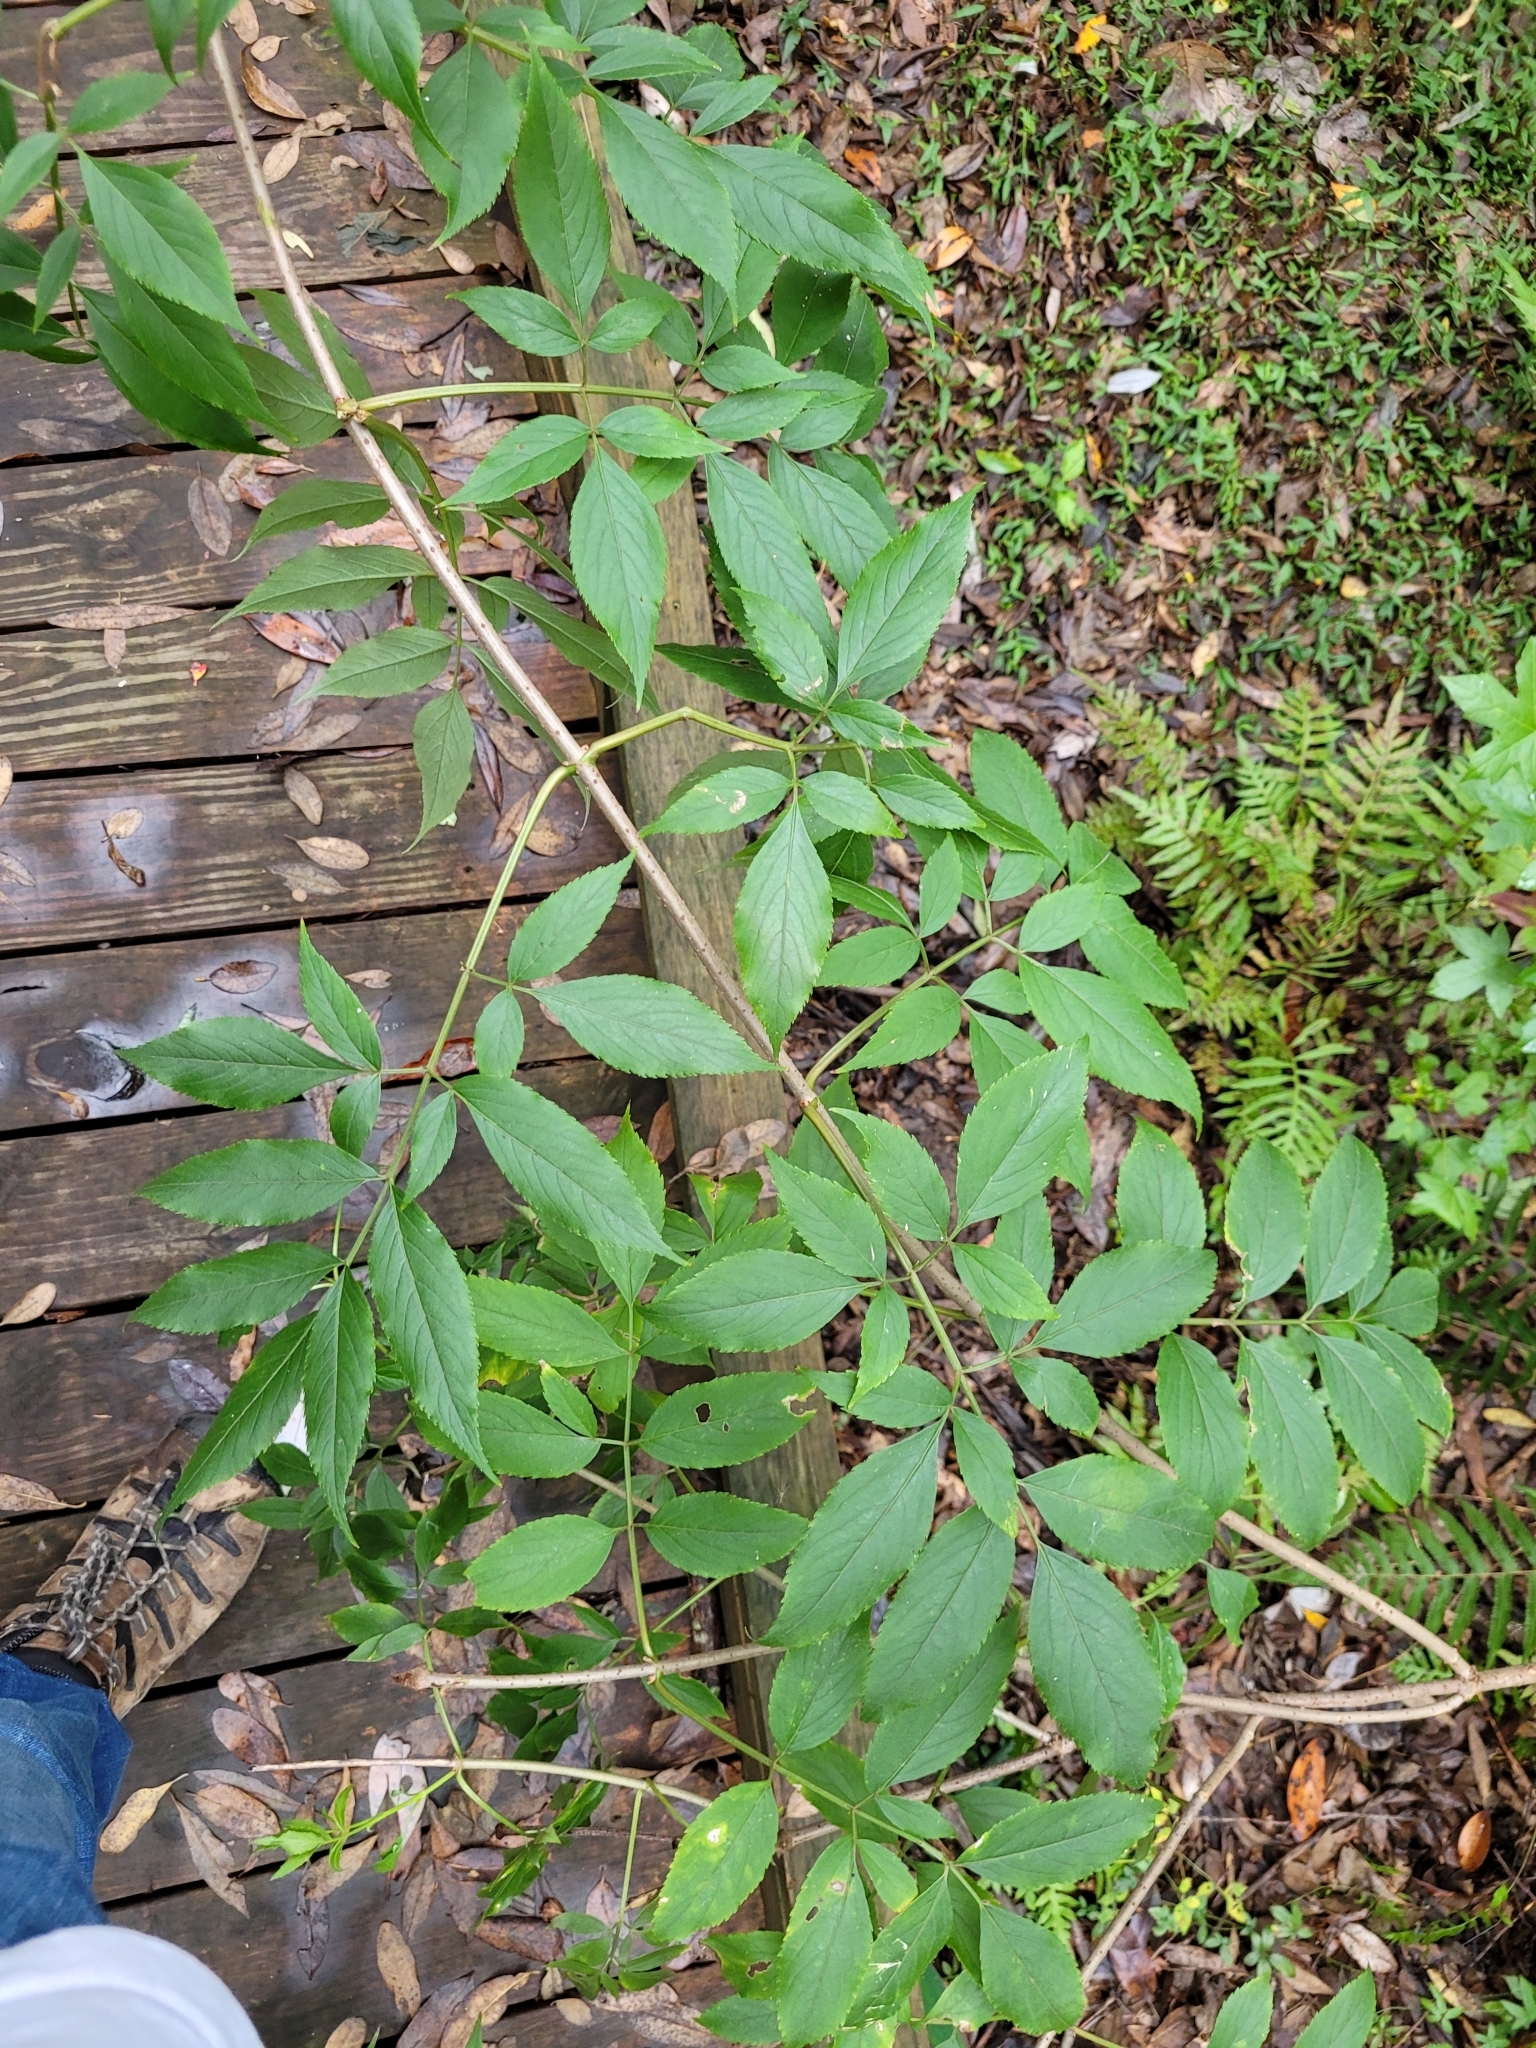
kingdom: Plantae
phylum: Tracheophyta
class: Magnoliopsida
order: Dipsacales
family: Viburnaceae
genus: Sambucus
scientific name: Sambucus canadensis
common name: American elder
